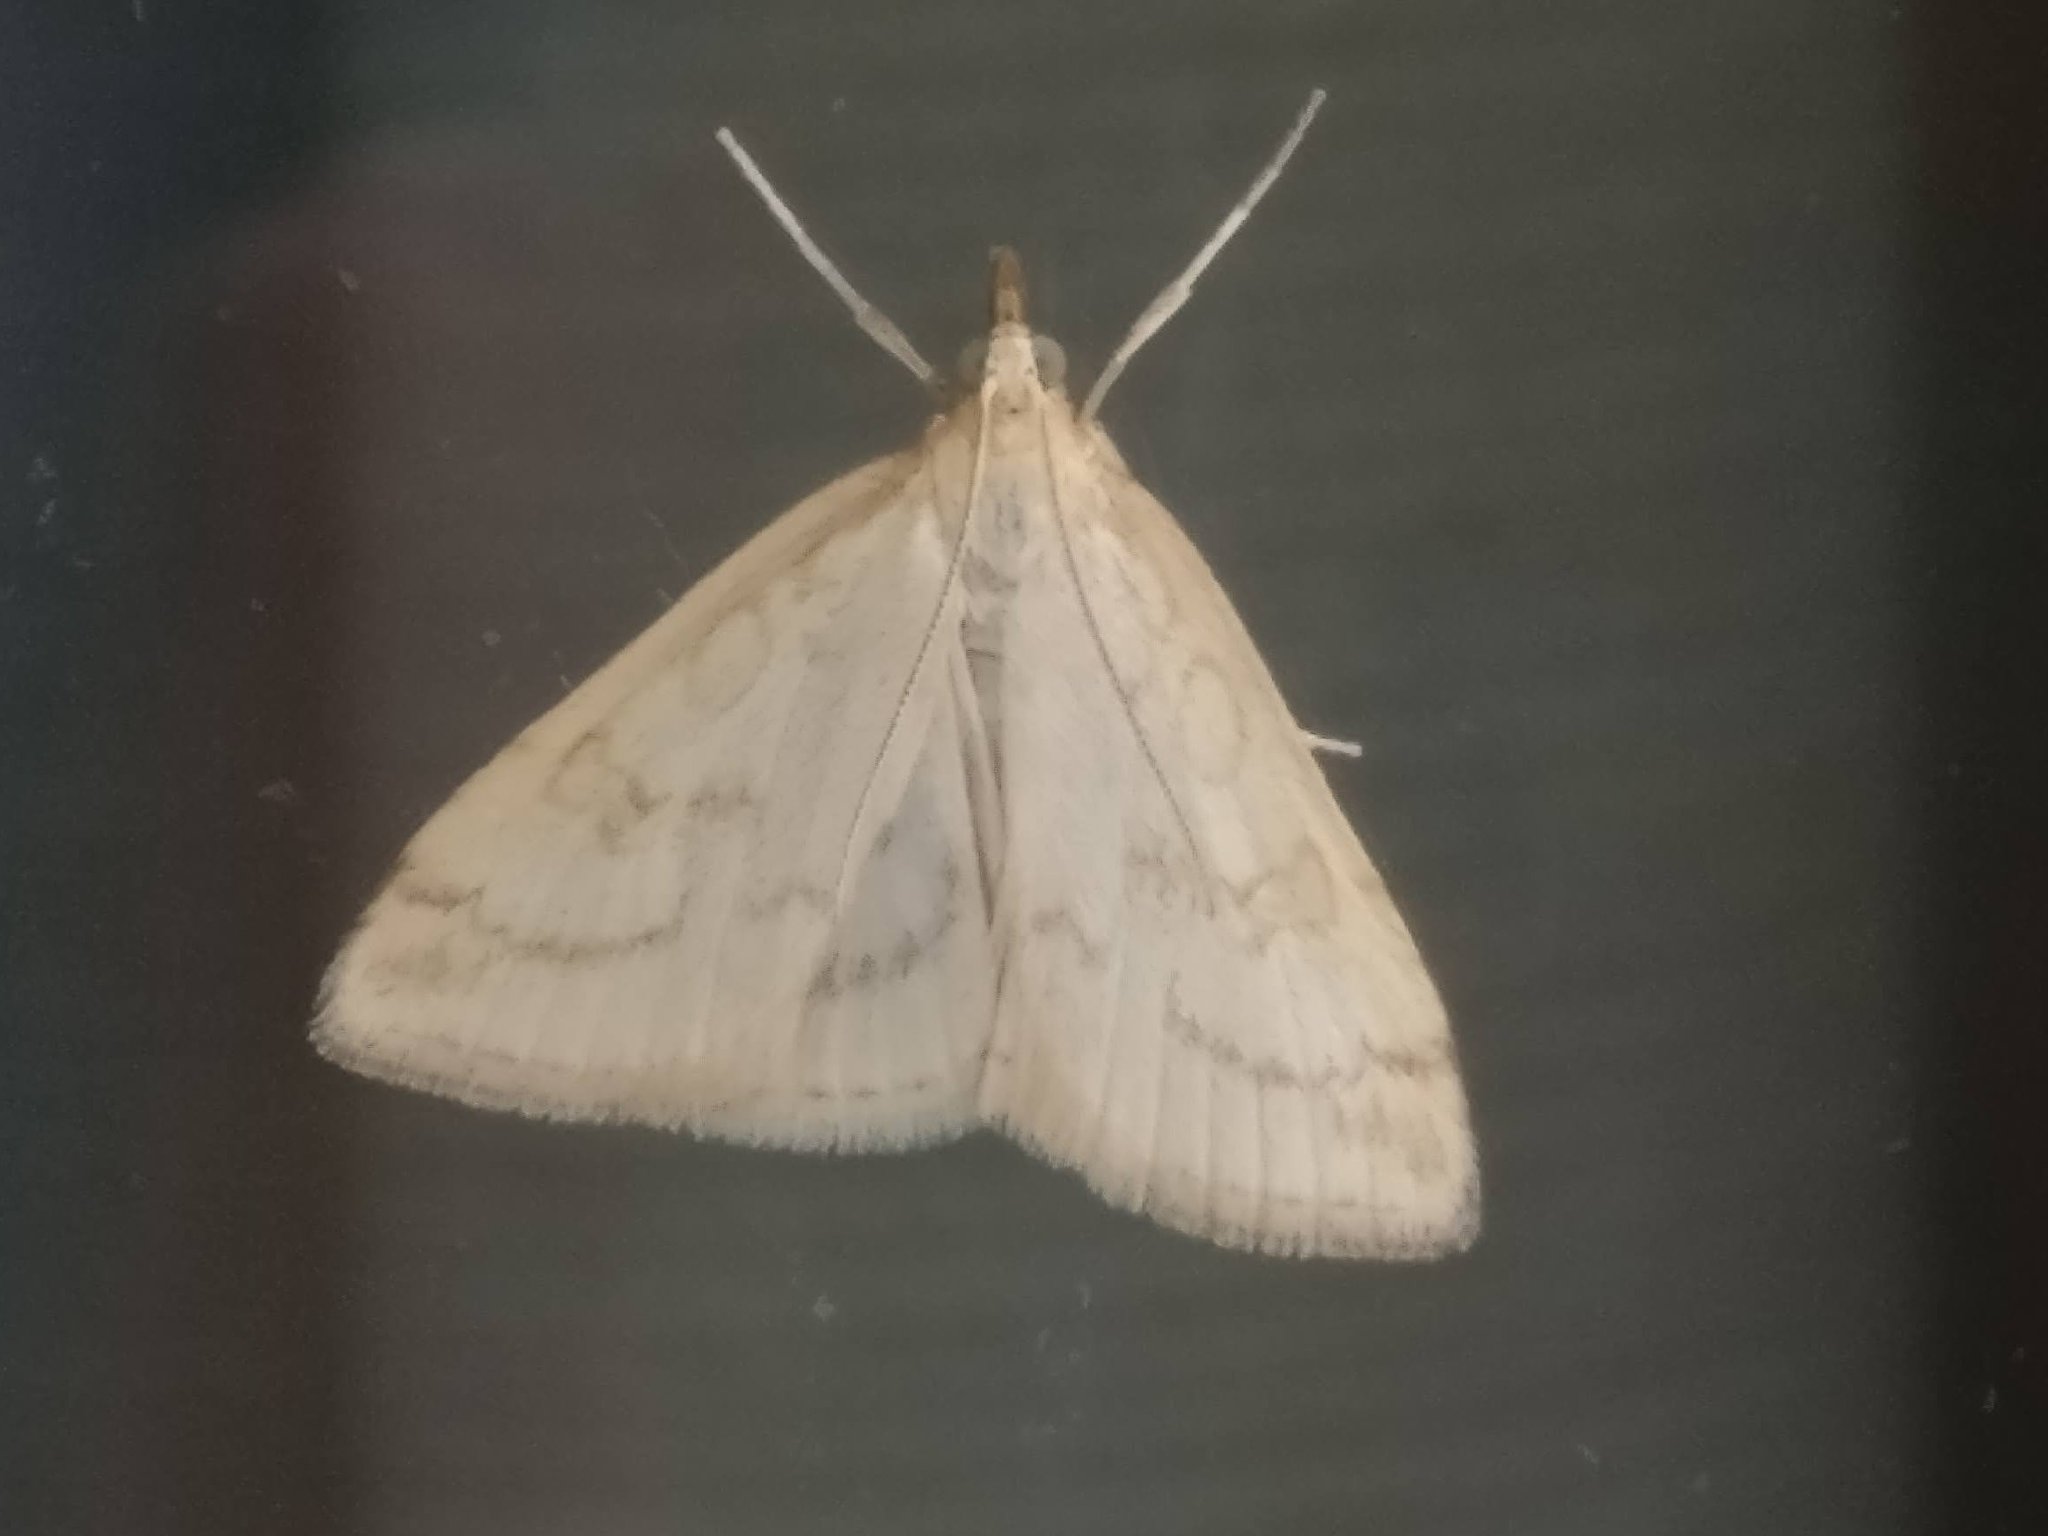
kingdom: Animalia
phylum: Arthropoda
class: Insecta
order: Lepidoptera
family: Crambidae
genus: Udea
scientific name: Udea lutealis
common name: Pale straw pearl
